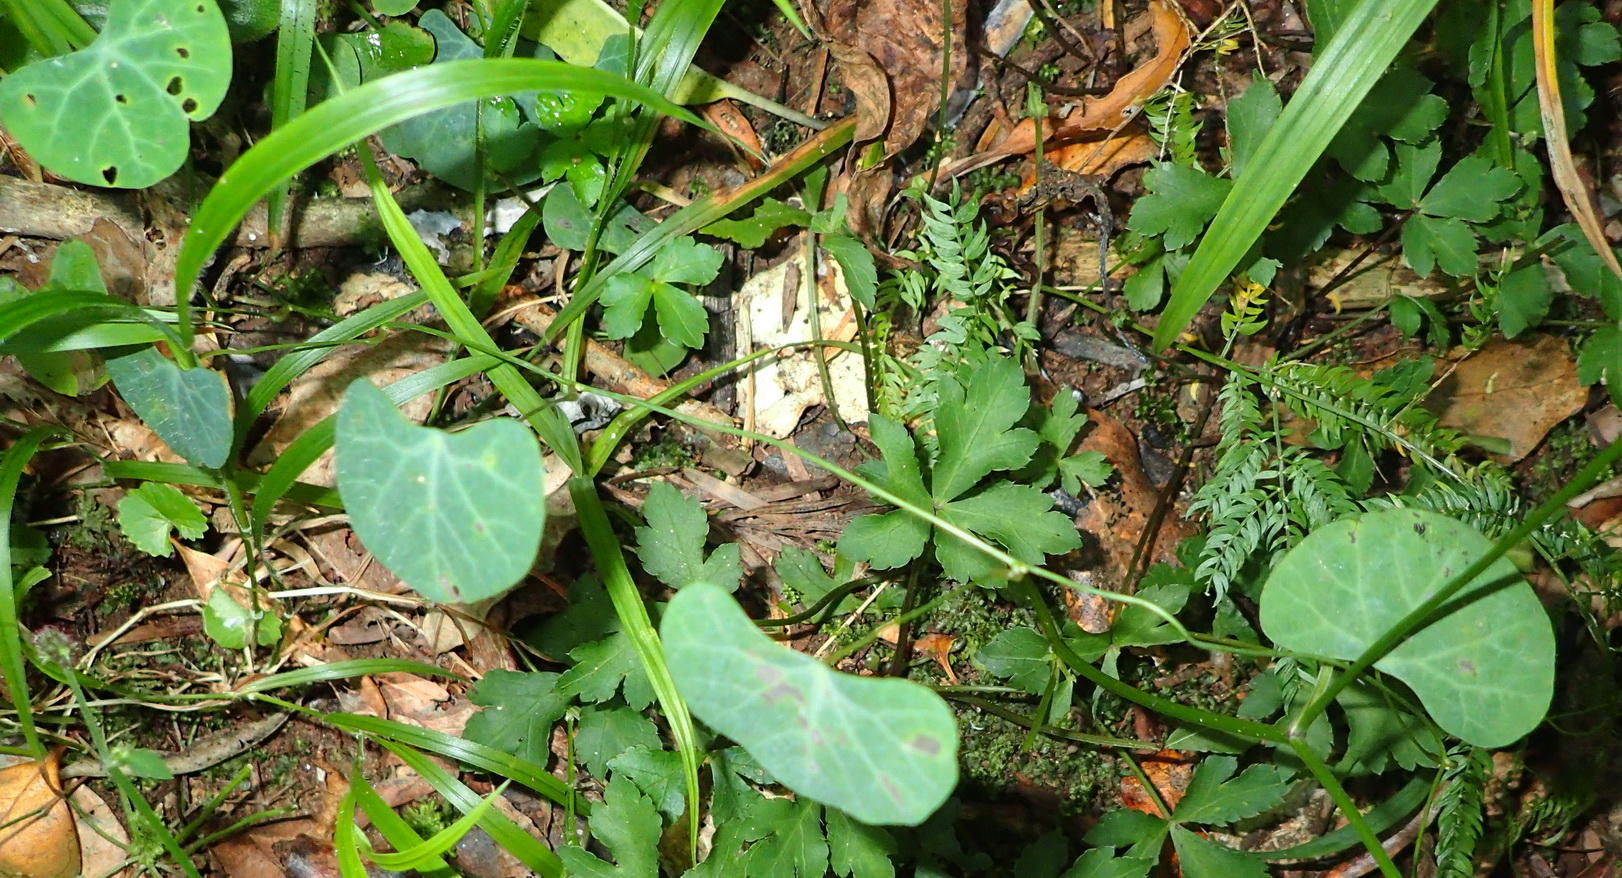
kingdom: Plantae
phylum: Tracheophyta
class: Magnoliopsida
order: Ranunculales
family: Menispermaceae
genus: Cissampelos
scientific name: Cissampelos torulosa
